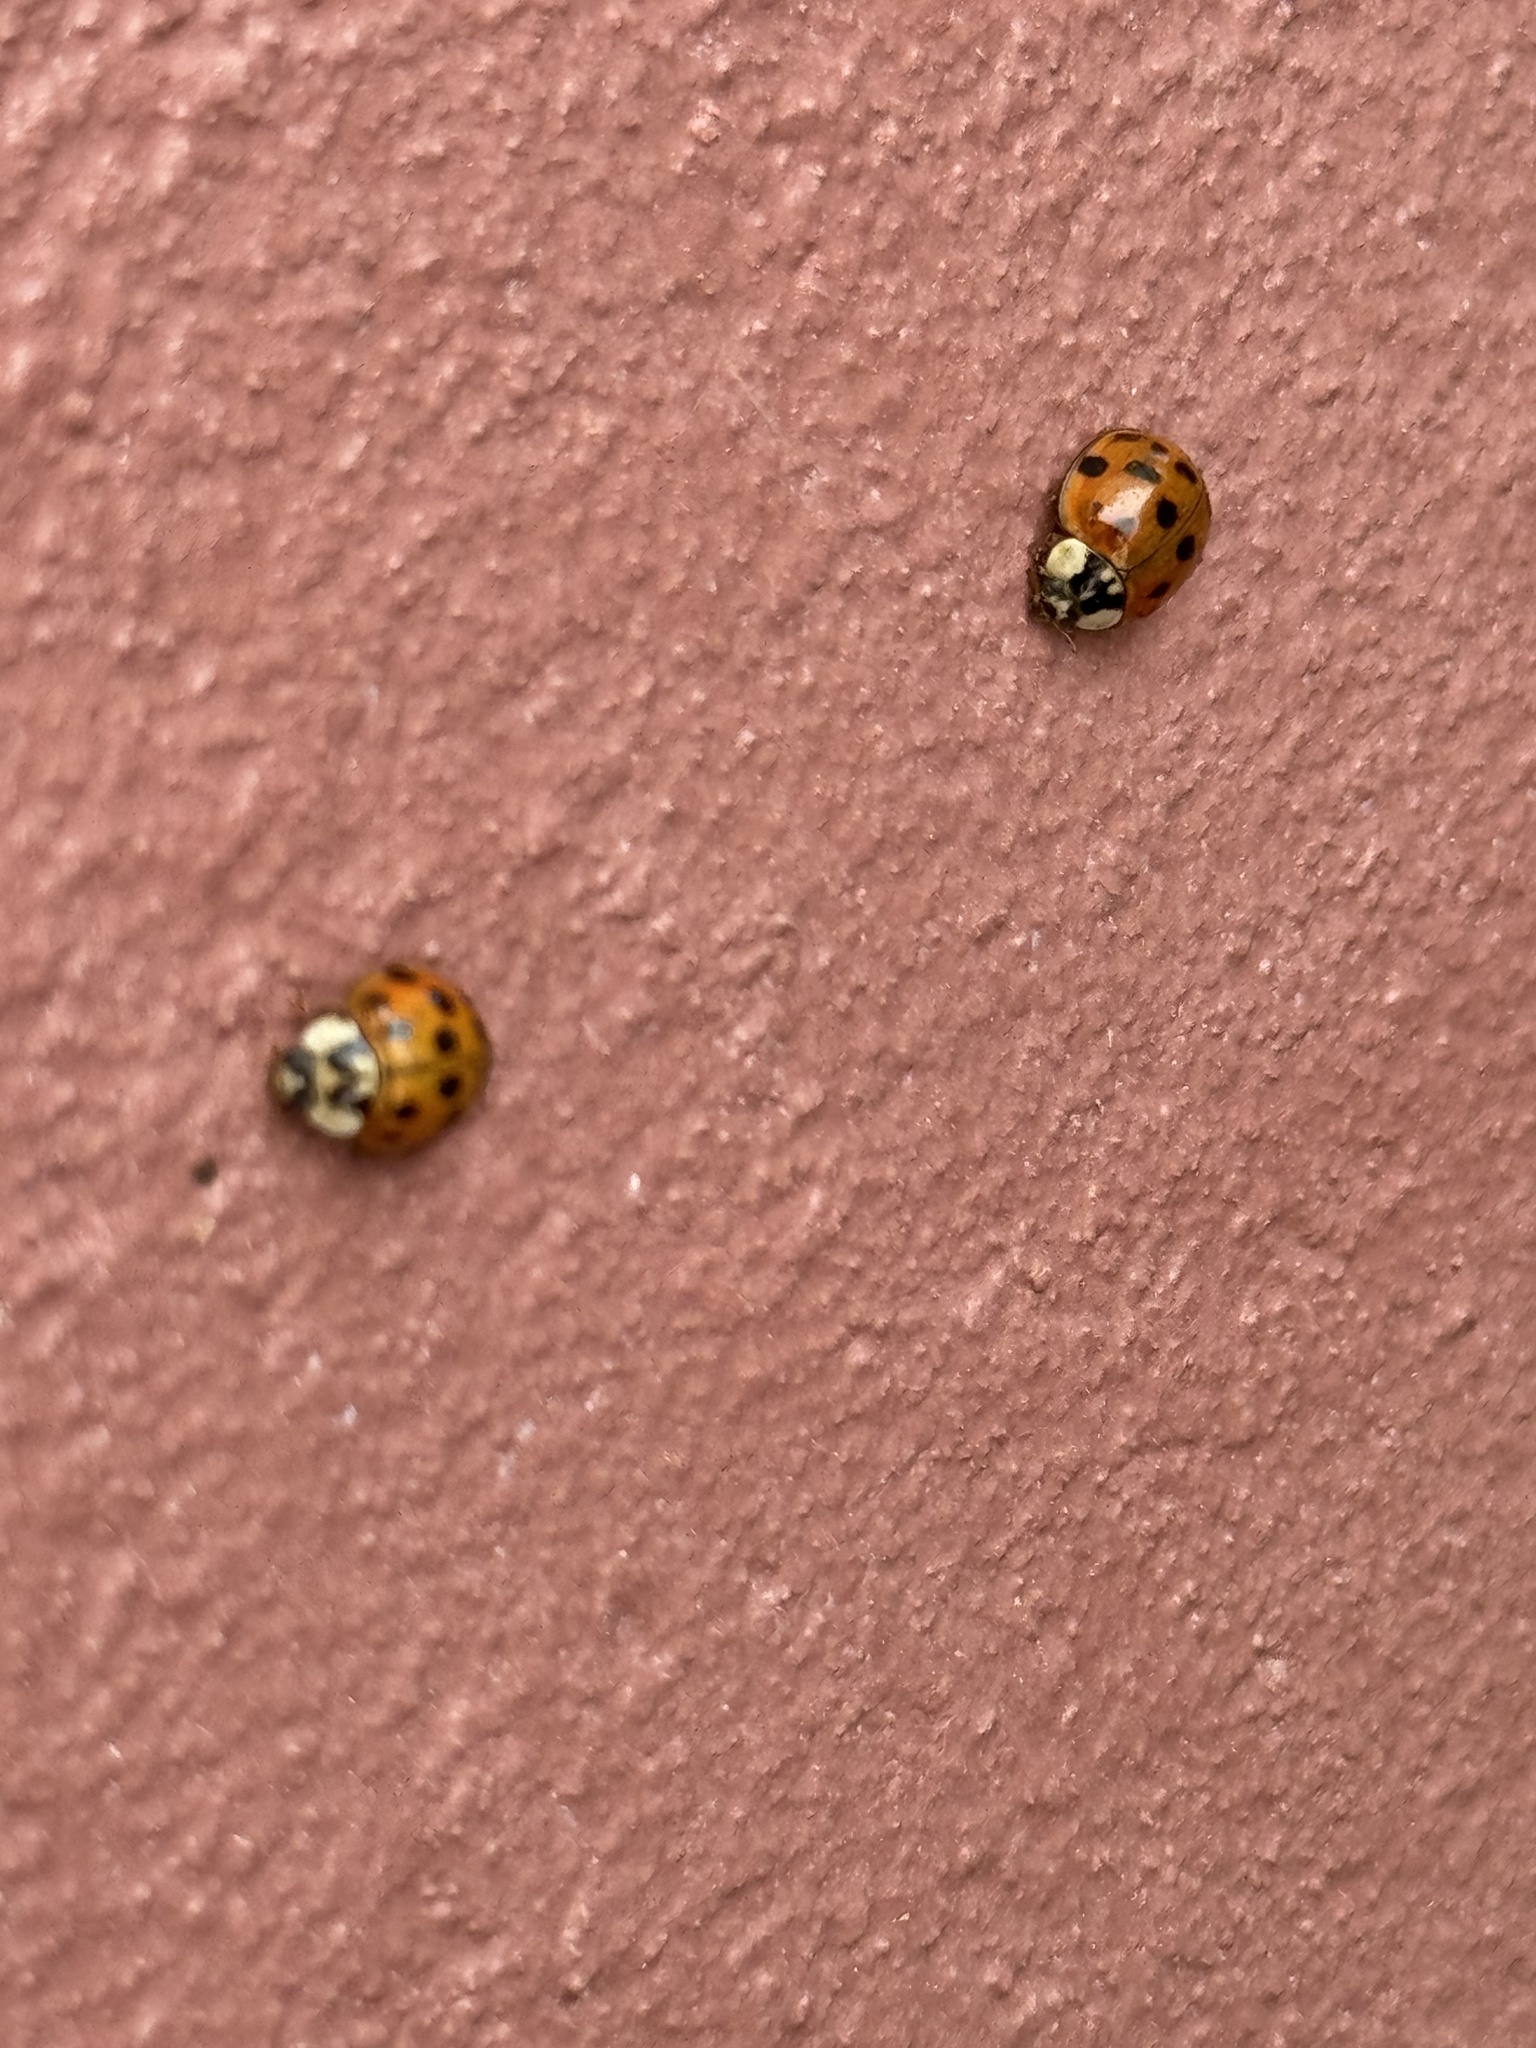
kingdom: Animalia
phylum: Arthropoda
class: Insecta
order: Coleoptera
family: Coccinellidae
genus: Harmonia
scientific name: Harmonia axyridis
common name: Harlequin ladybird
